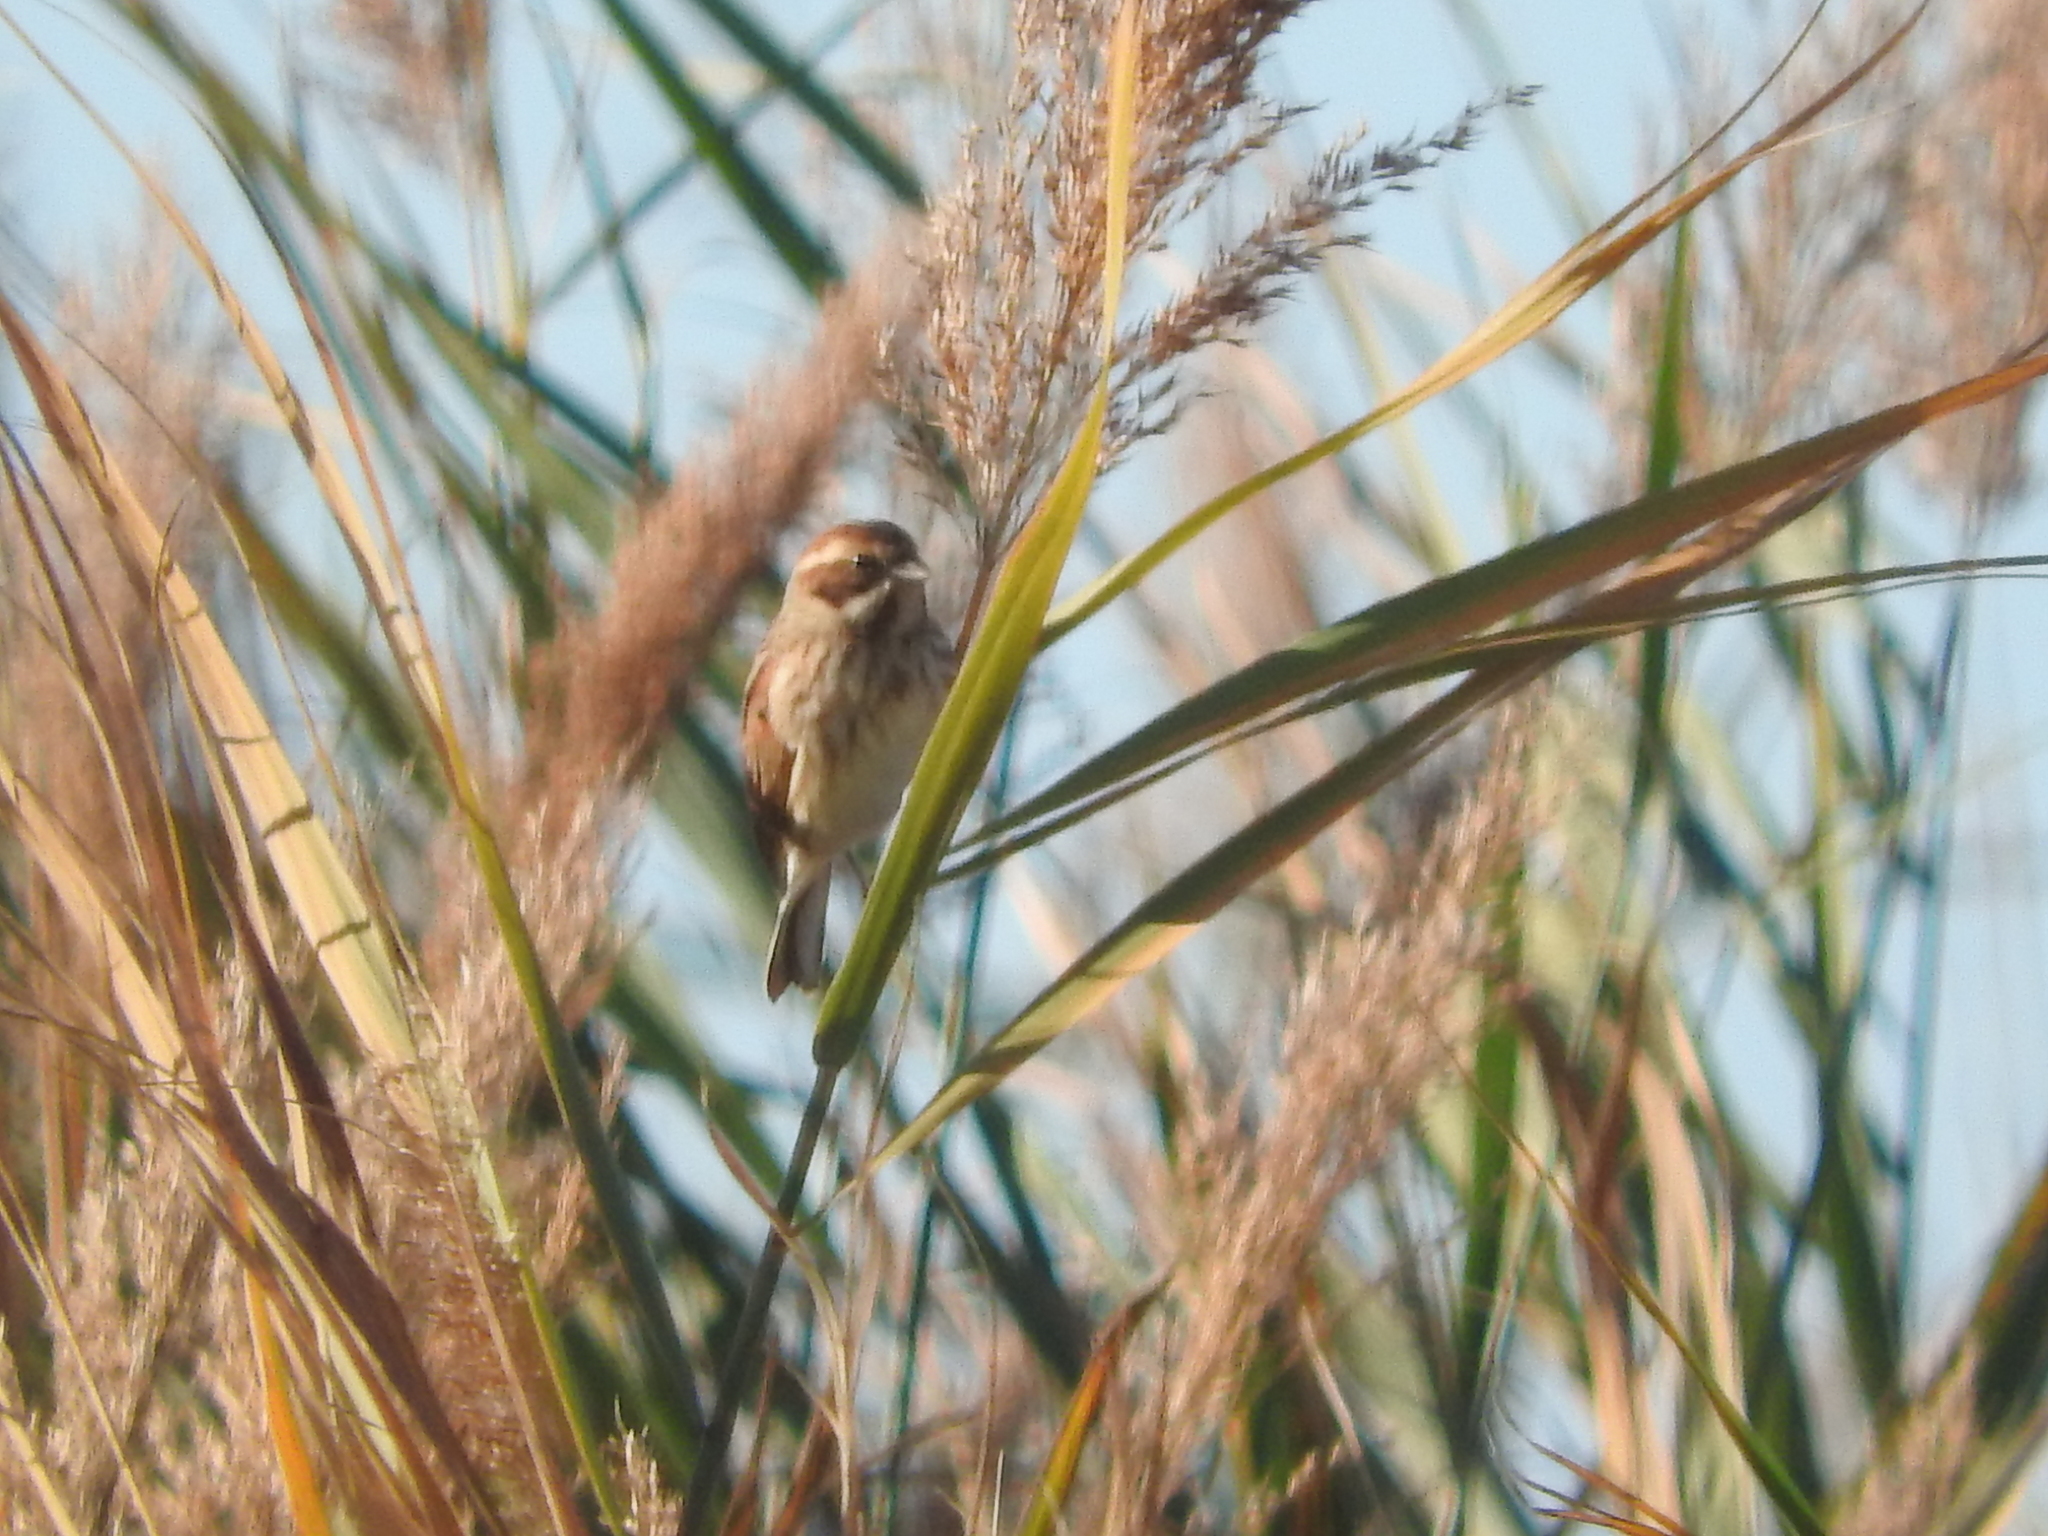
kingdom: Animalia
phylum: Chordata
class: Aves
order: Passeriformes
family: Emberizidae
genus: Emberiza
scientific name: Emberiza schoeniclus
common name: Reed bunting
